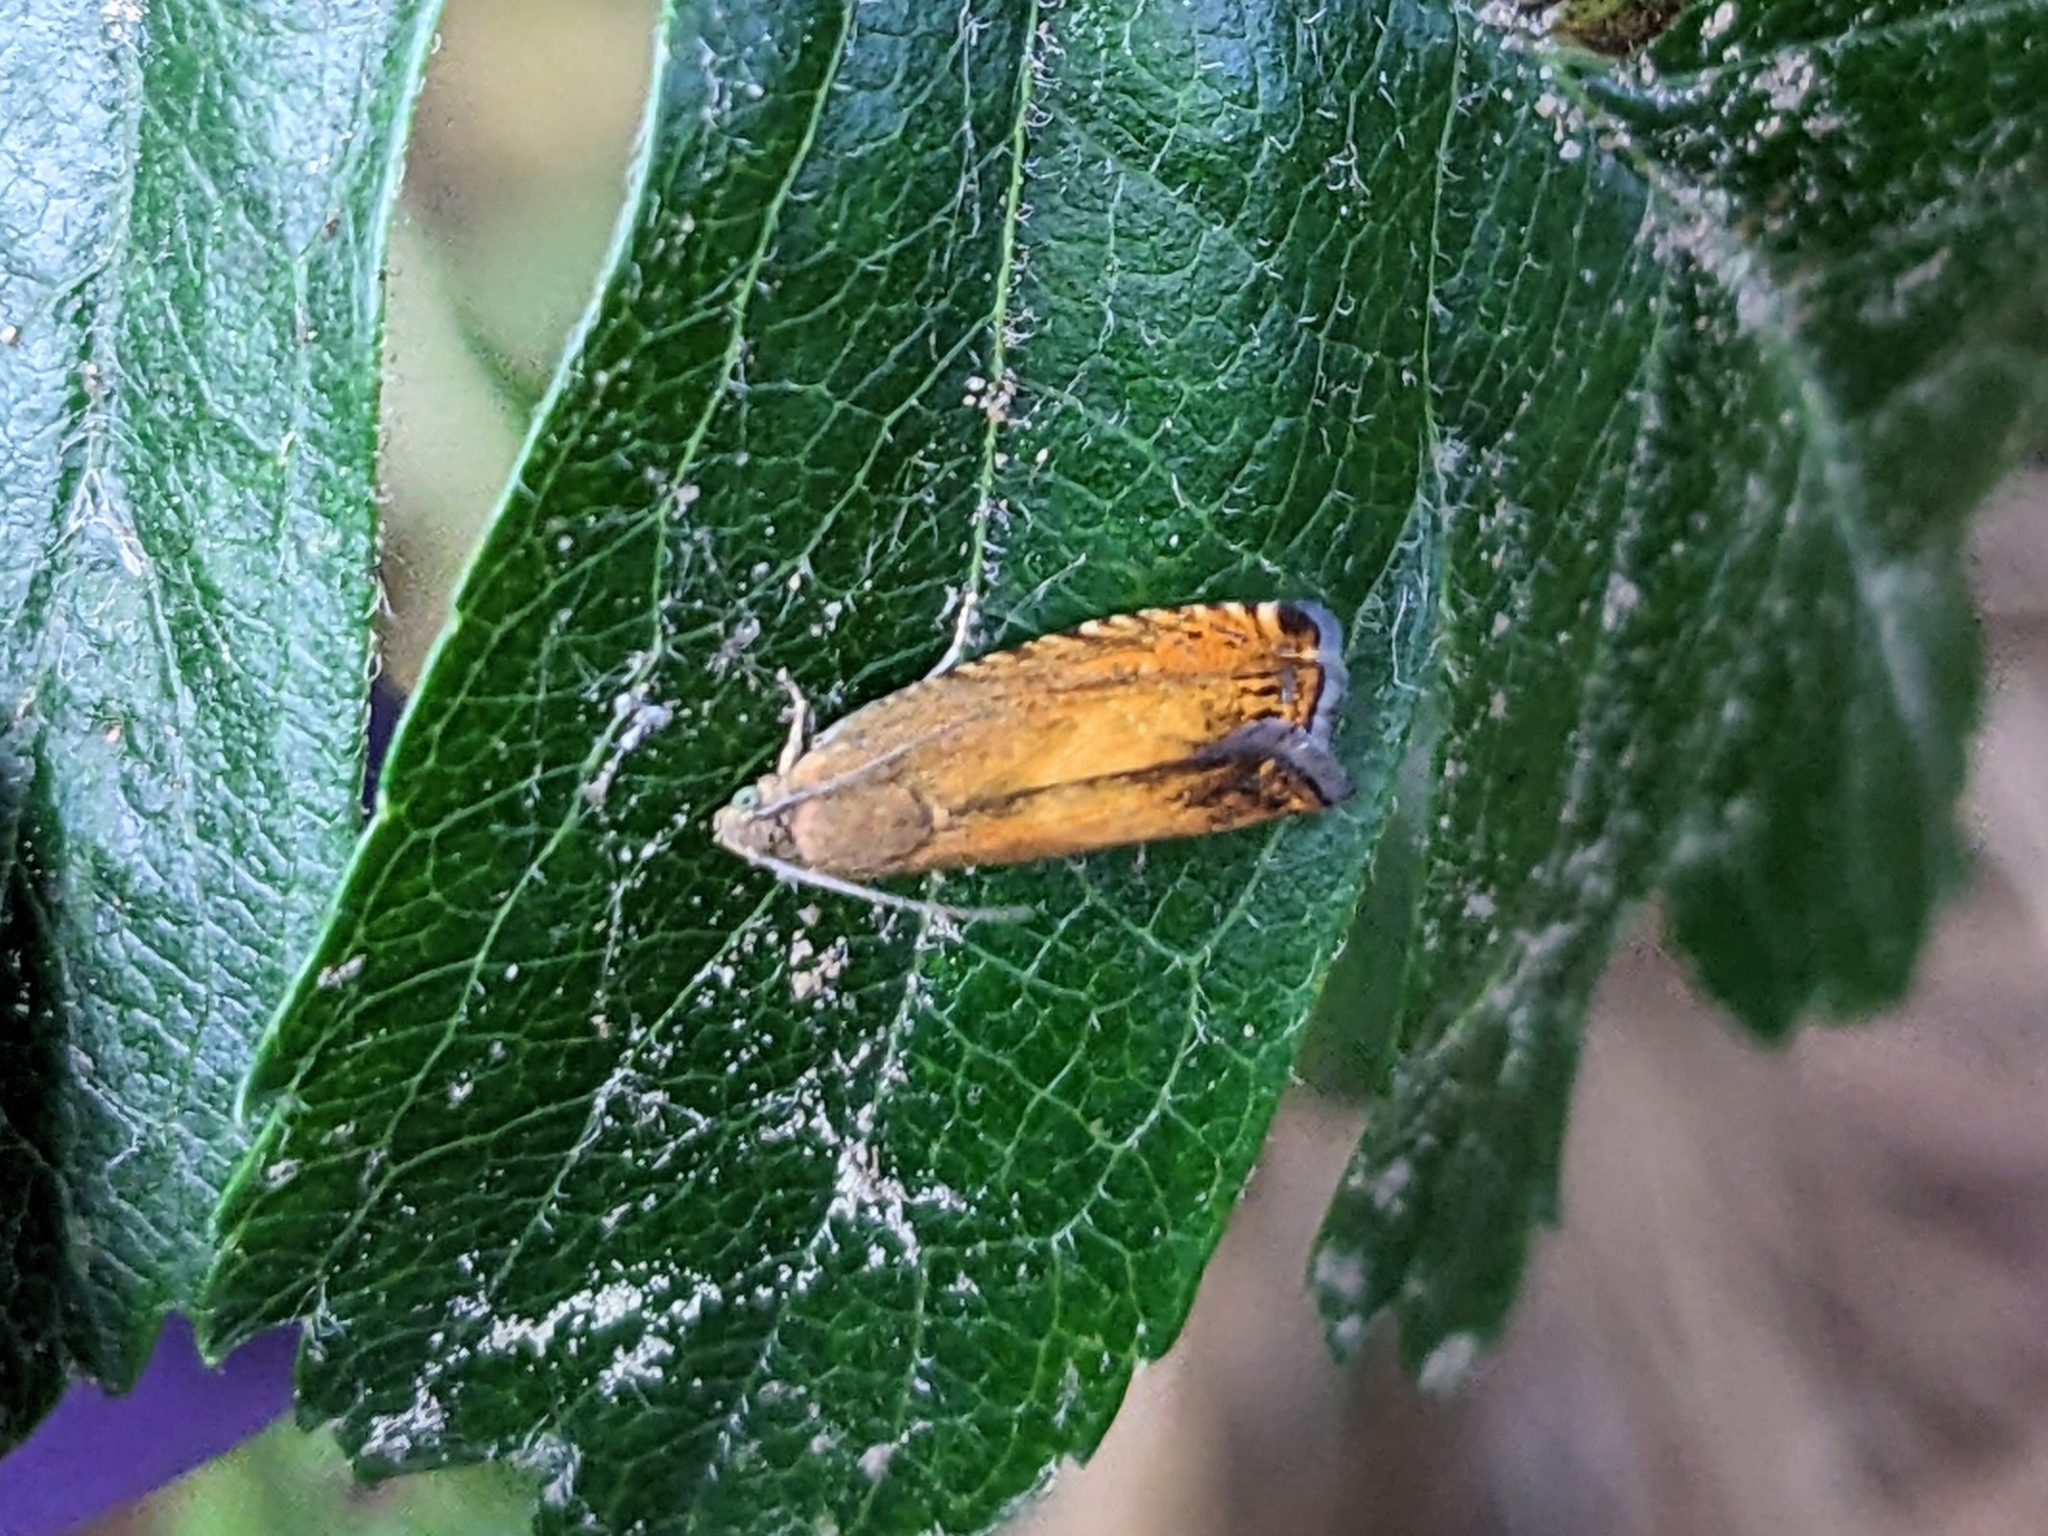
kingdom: Animalia
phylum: Arthropoda
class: Insecta
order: Lepidoptera
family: Tortricidae
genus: Pammene
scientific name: Pammene aurita
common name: Sycamore piercer
